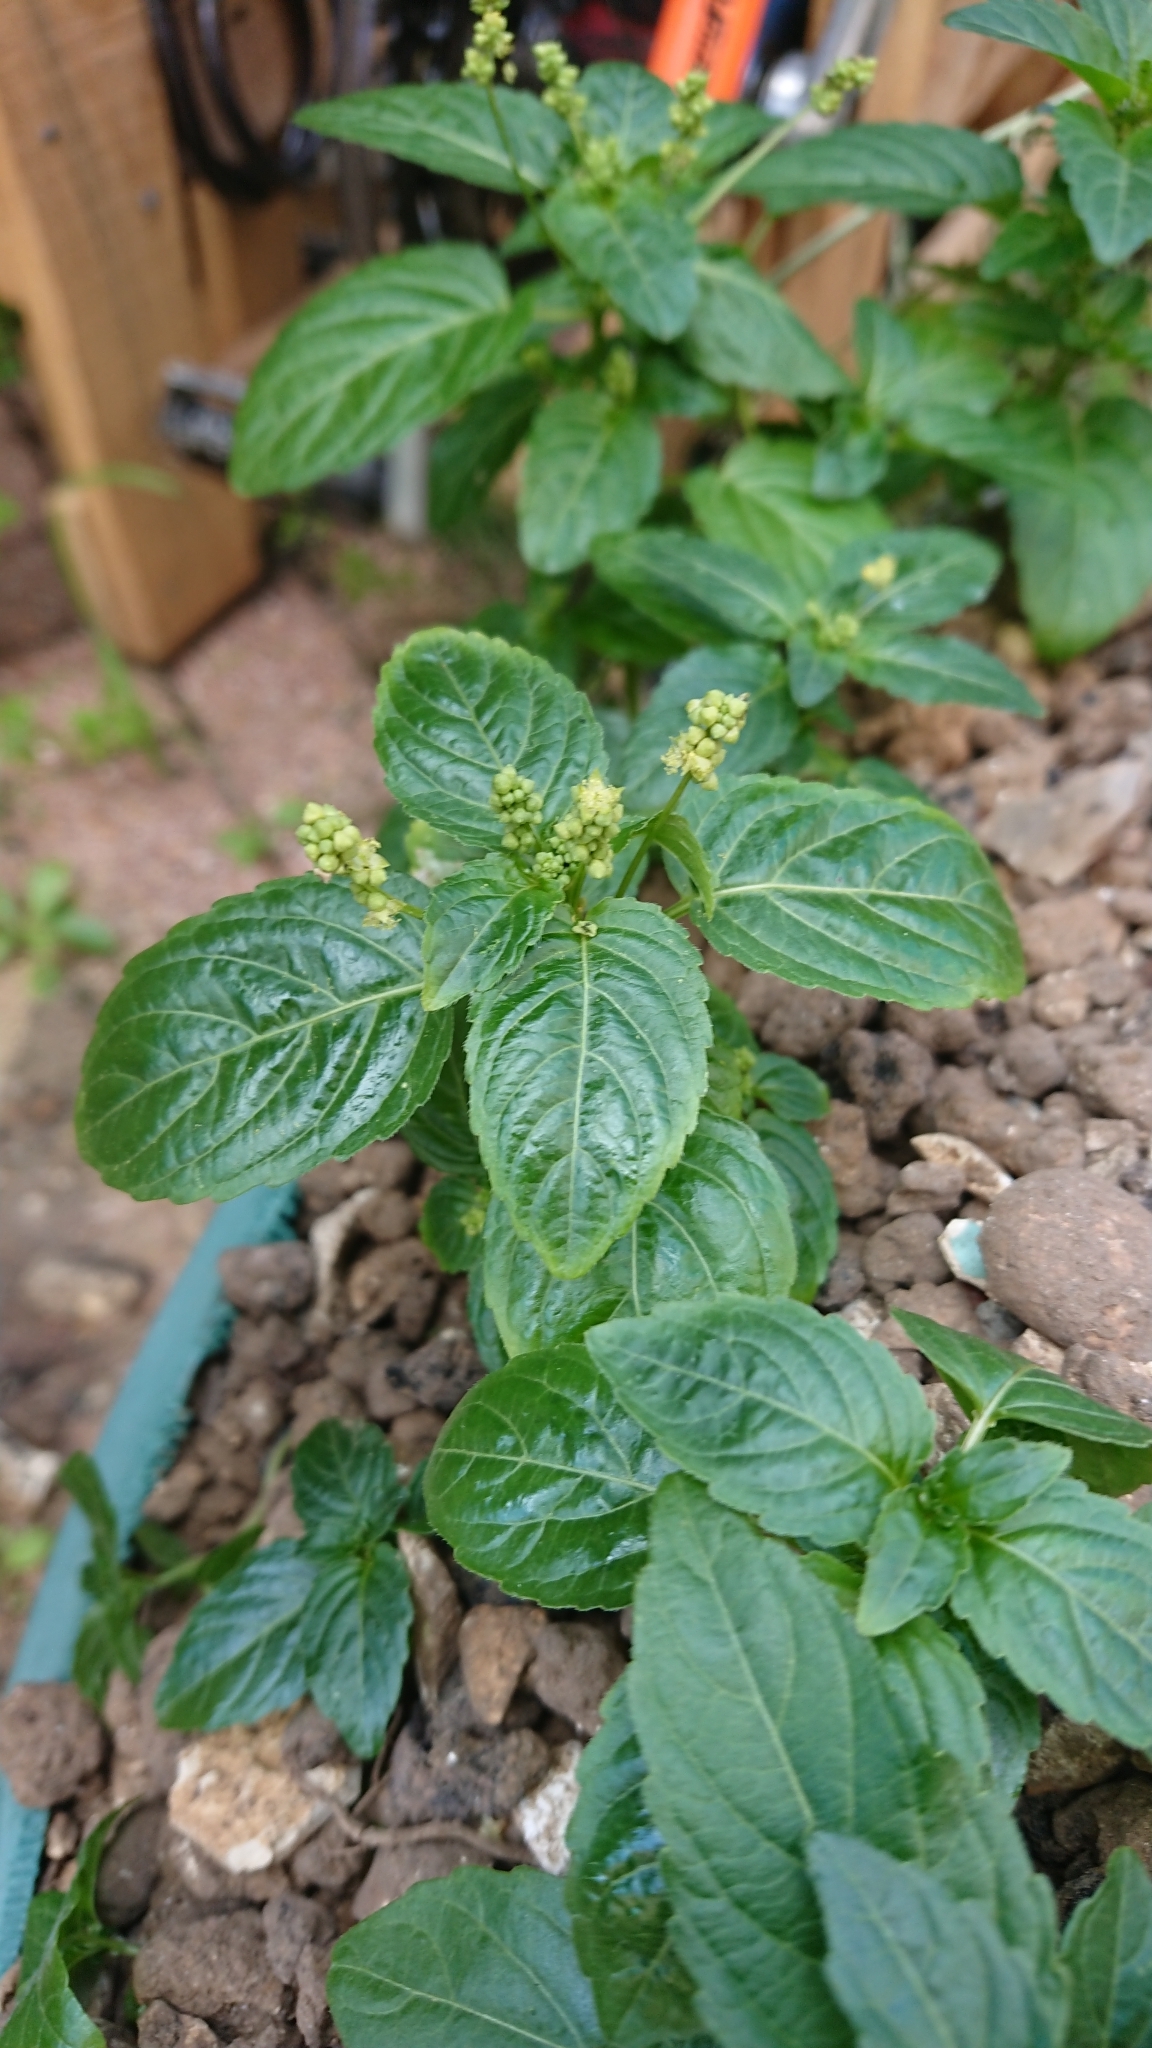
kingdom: Plantae
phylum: Tracheophyta
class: Magnoliopsida
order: Malpighiales
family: Euphorbiaceae
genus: Mercurialis
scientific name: Mercurialis annua
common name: Annual mercury
